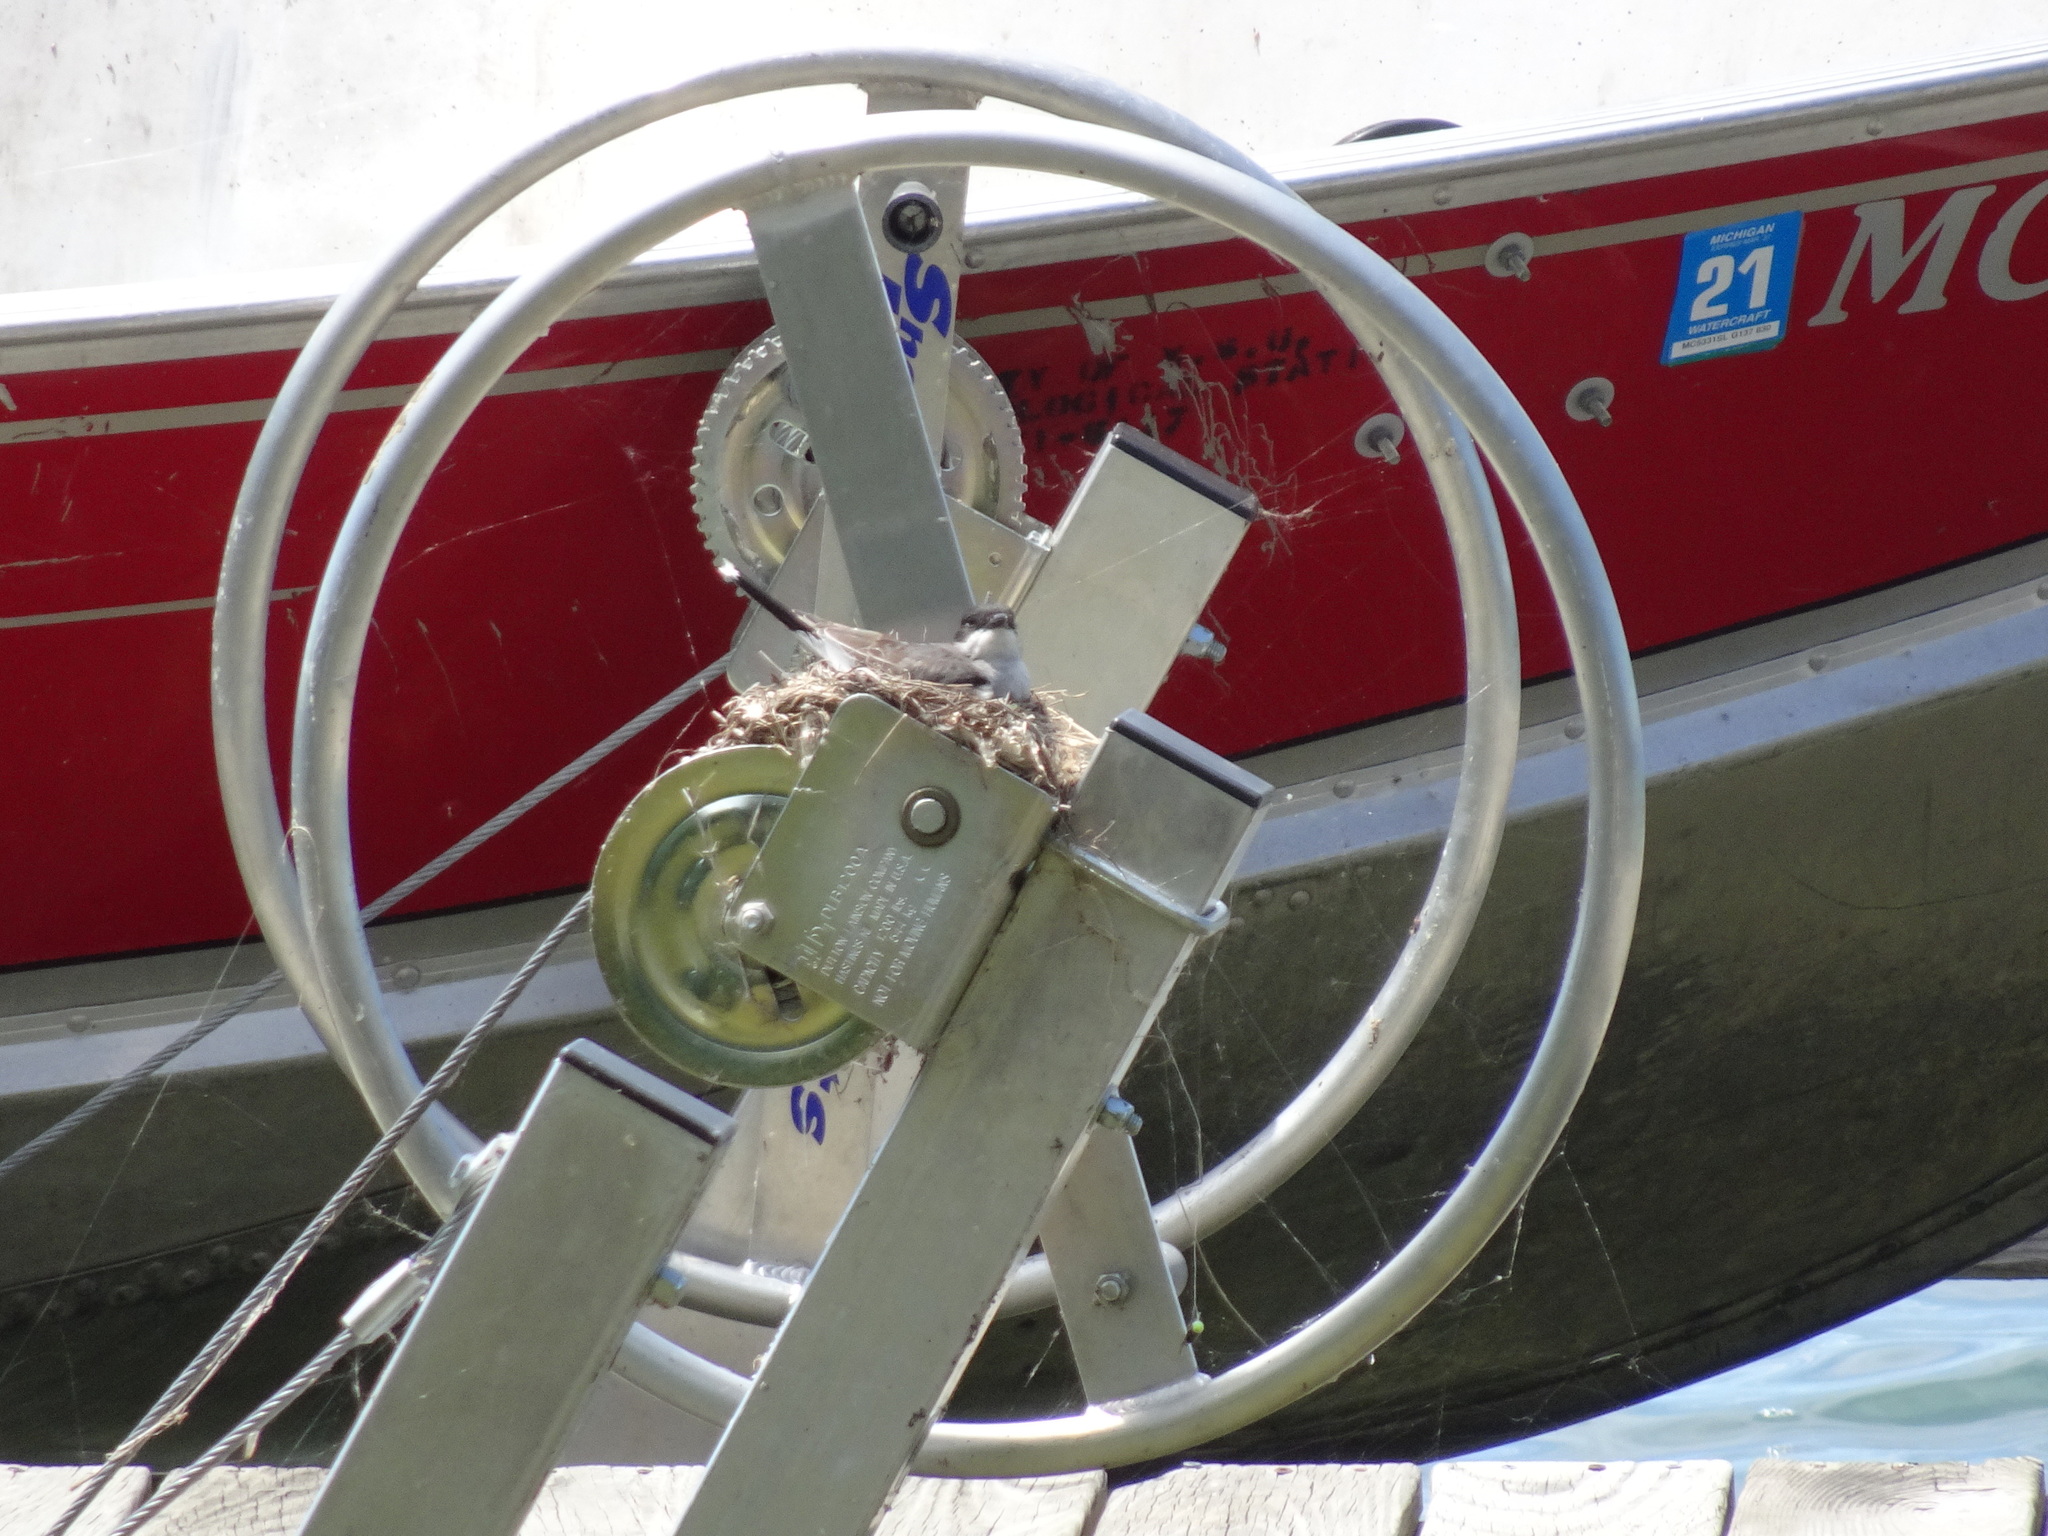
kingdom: Animalia
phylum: Chordata
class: Aves
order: Passeriformes
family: Tyrannidae
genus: Tyrannus
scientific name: Tyrannus tyrannus
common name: Eastern kingbird
